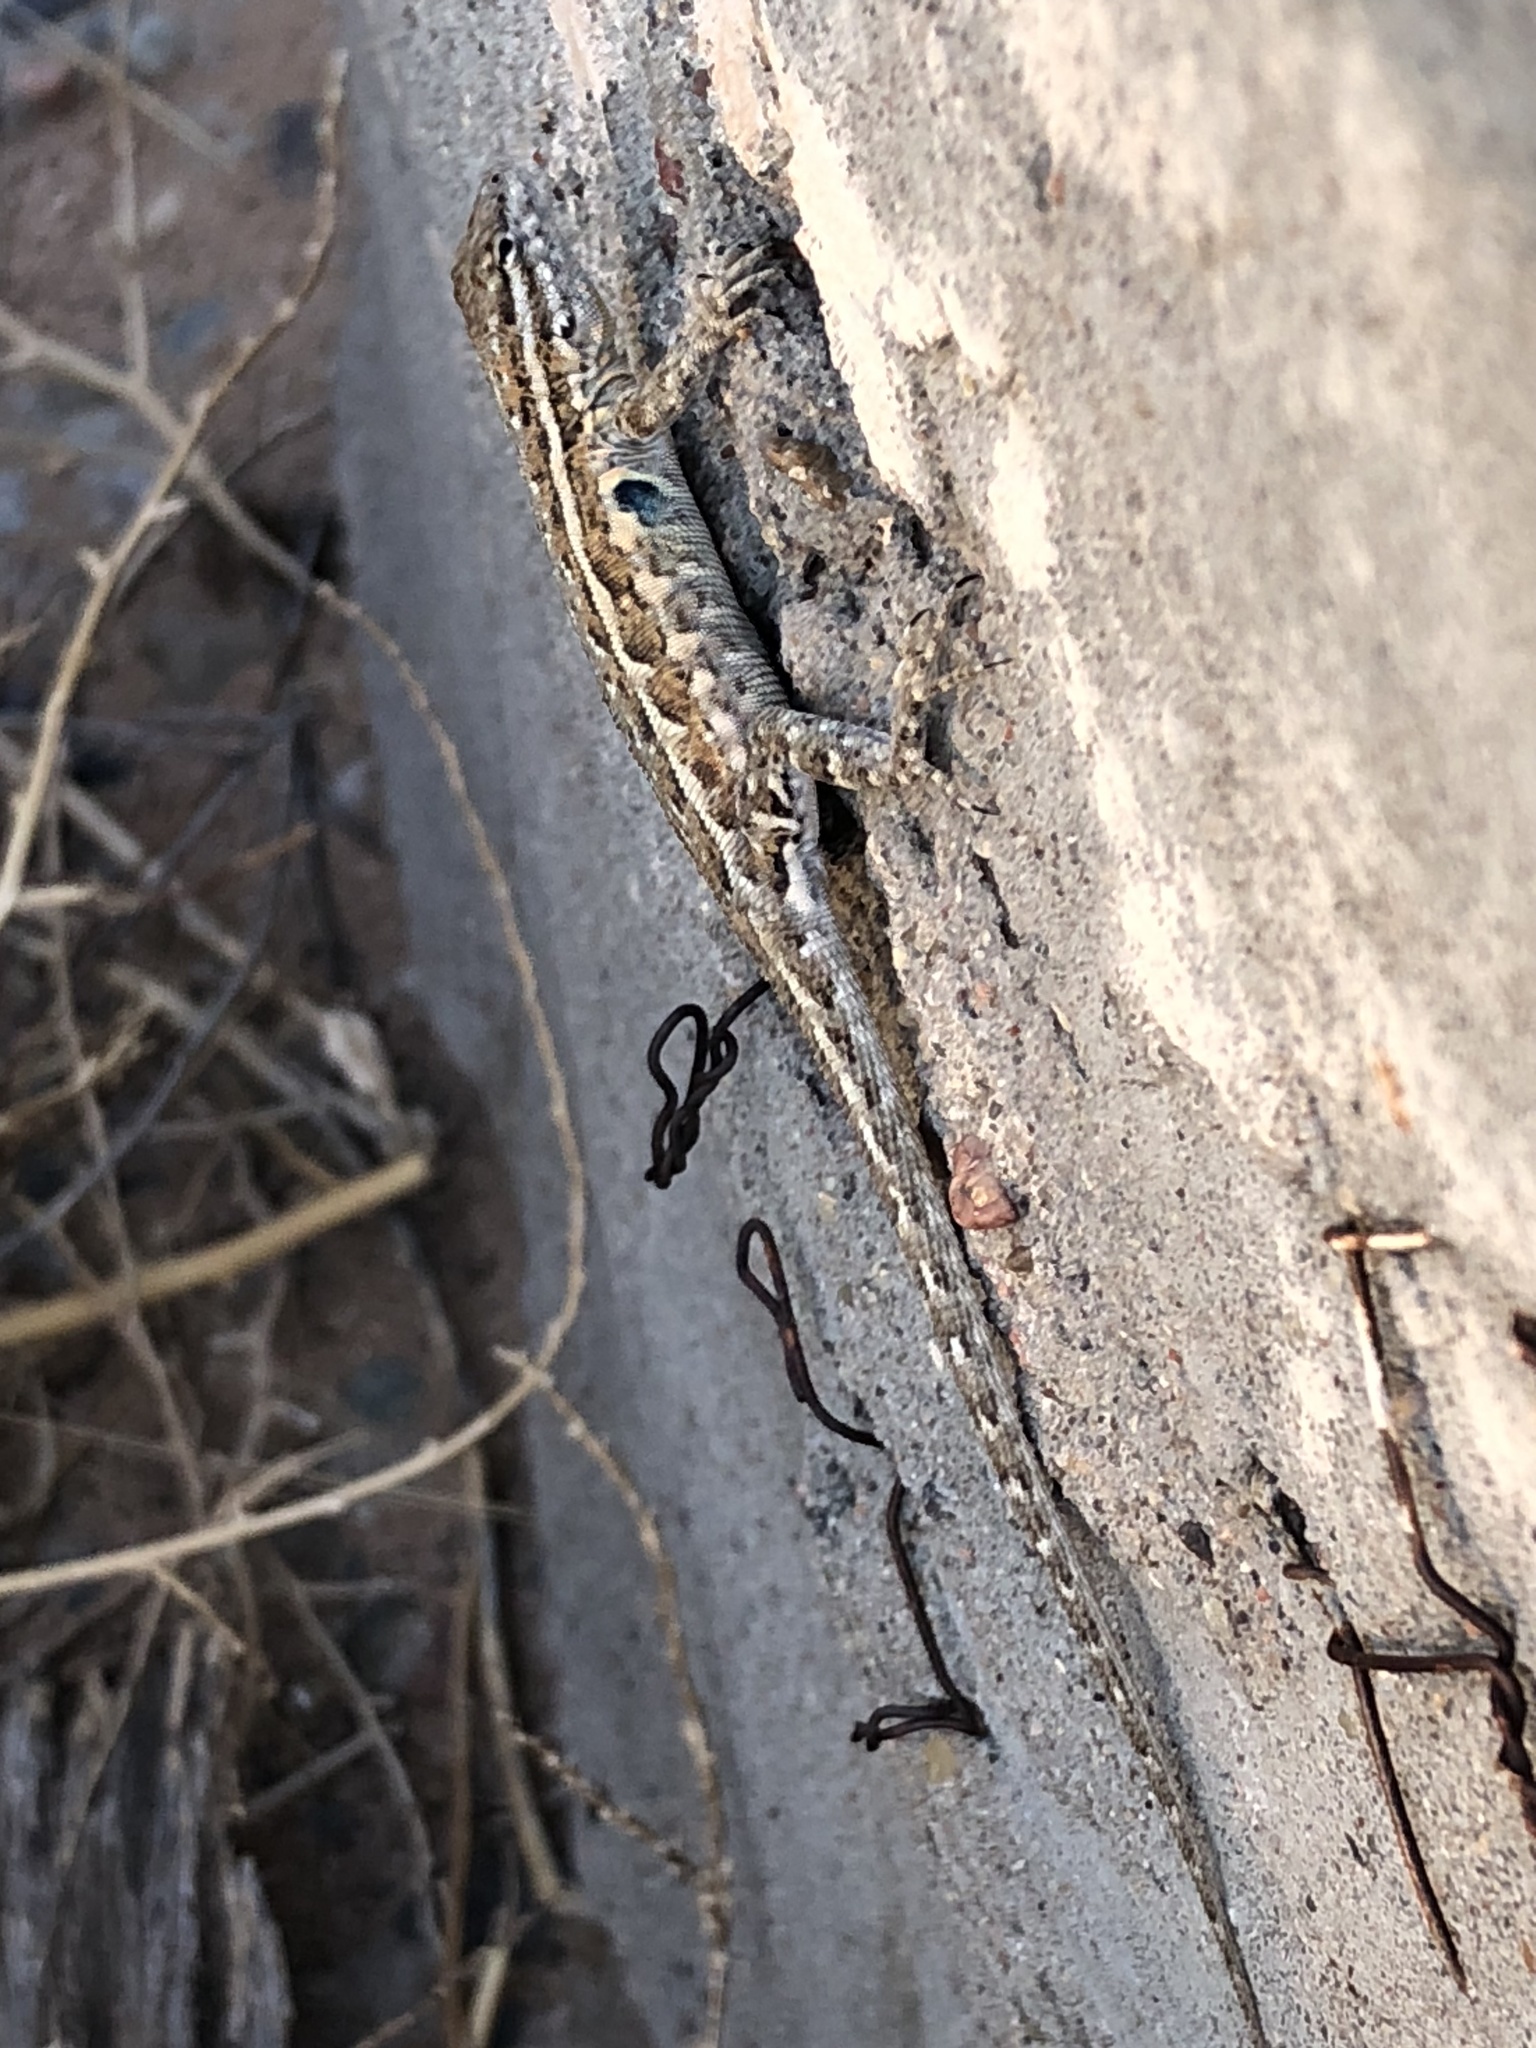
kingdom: Animalia
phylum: Chordata
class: Squamata
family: Phrynosomatidae
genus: Uta
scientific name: Uta stansburiana
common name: Side-blotched lizard
